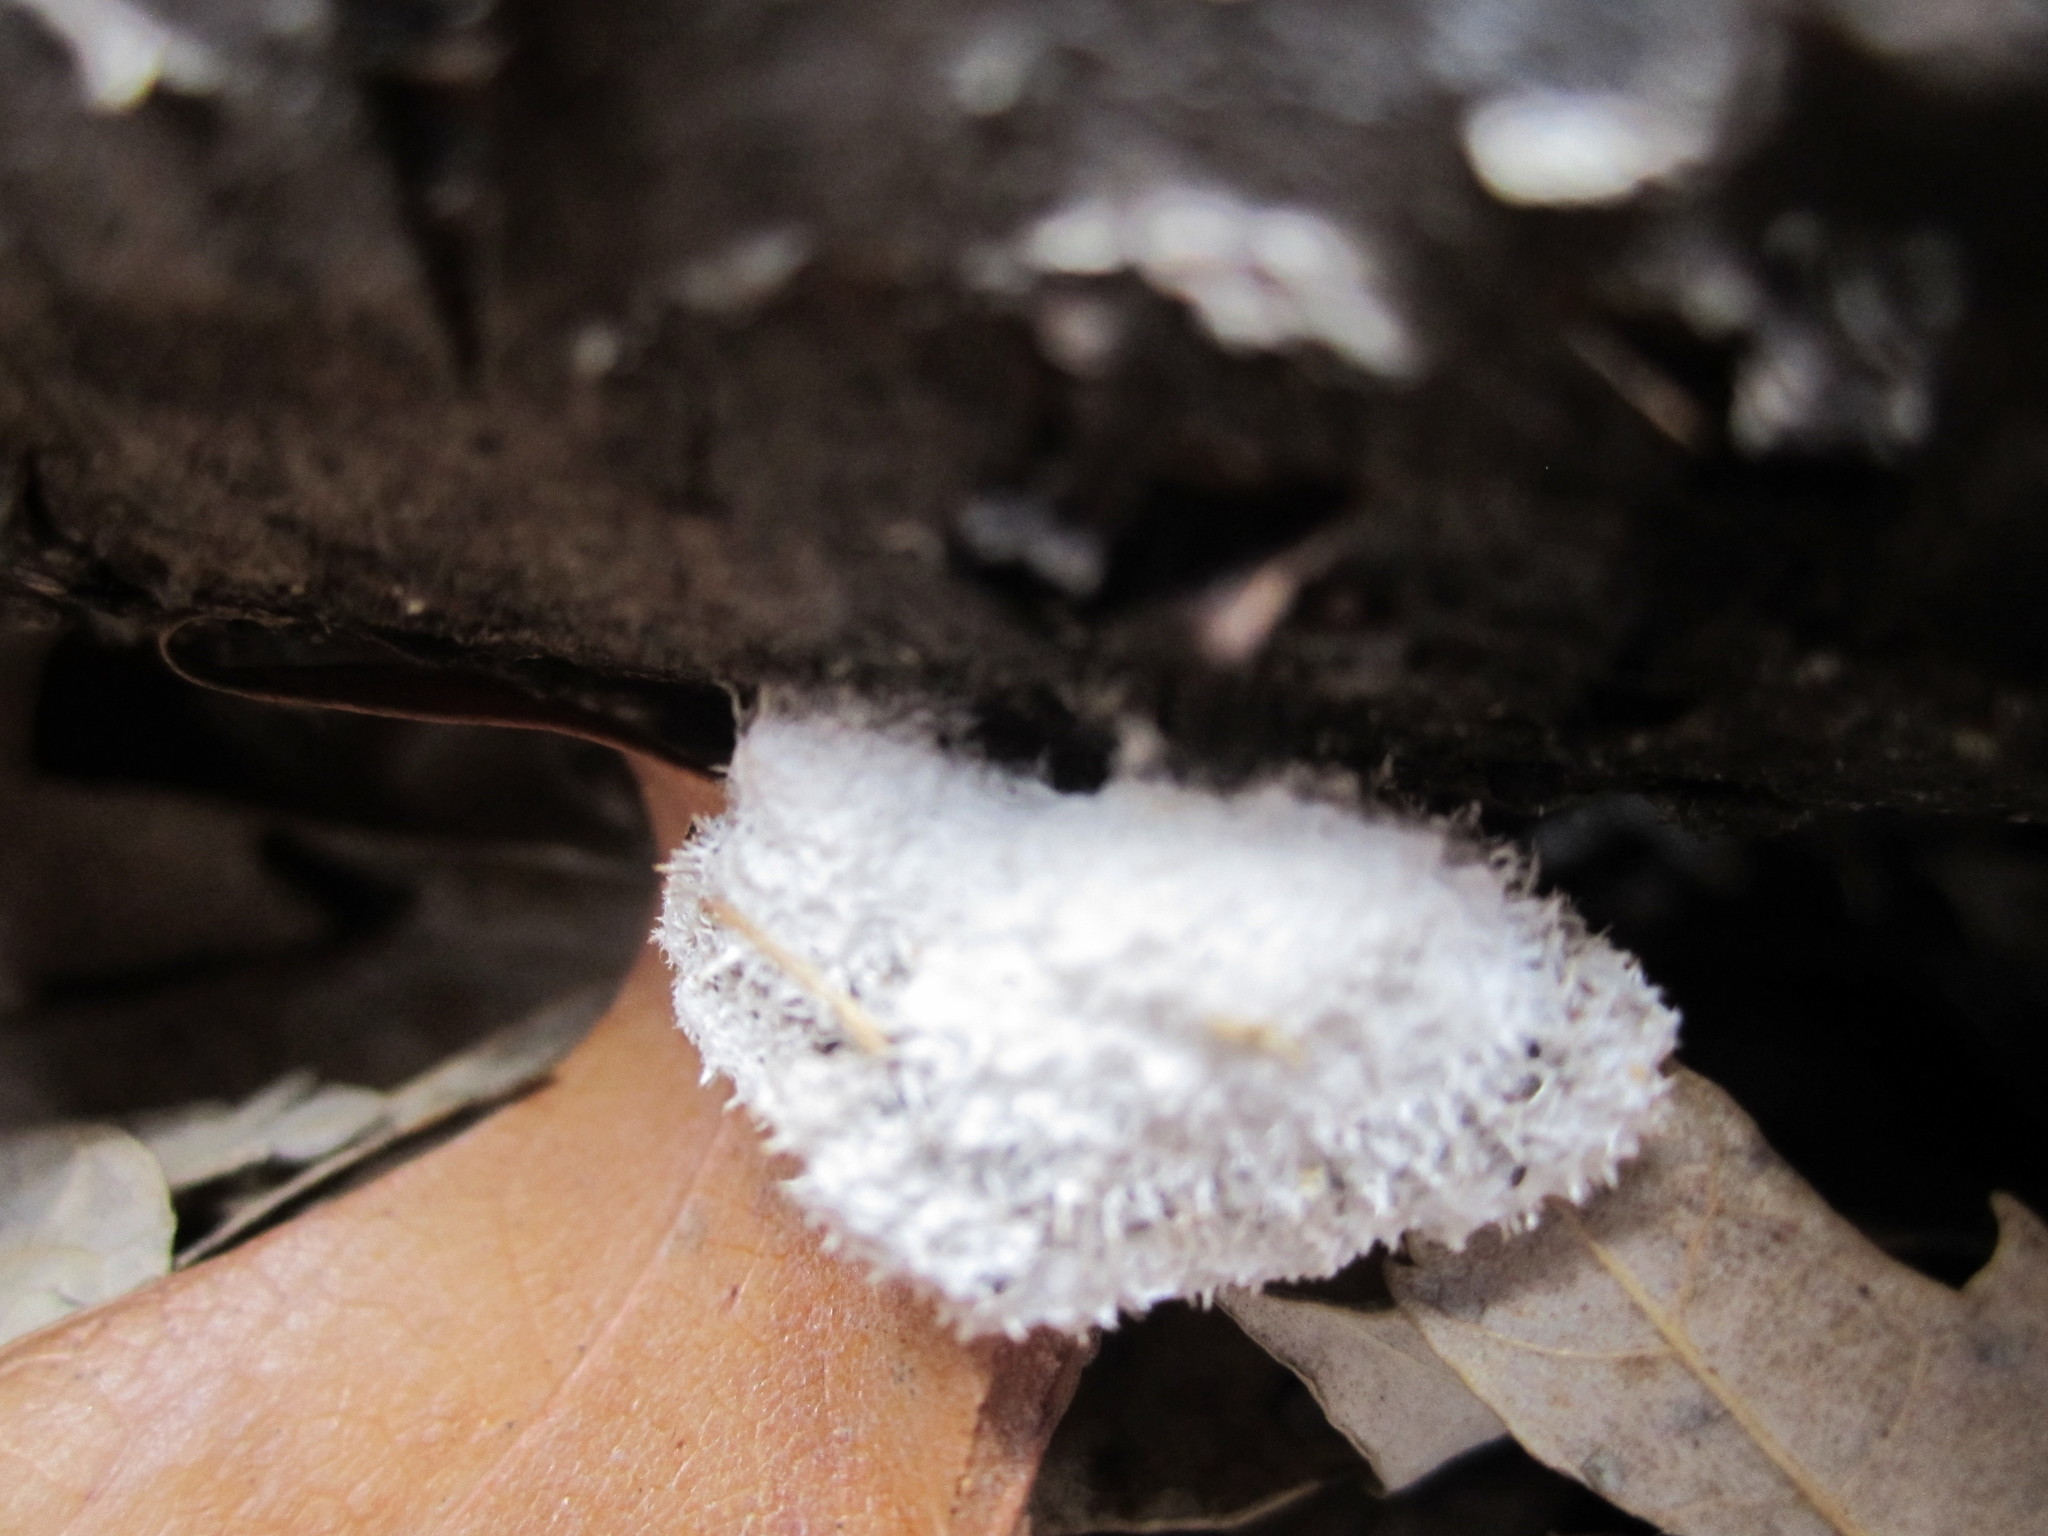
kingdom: Fungi
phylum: Basidiomycota
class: Agaricomycetes
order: Agaricales
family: Schizophyllaceae
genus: Schizophyllum
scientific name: Schizophyllum commune
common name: Common porecrust
